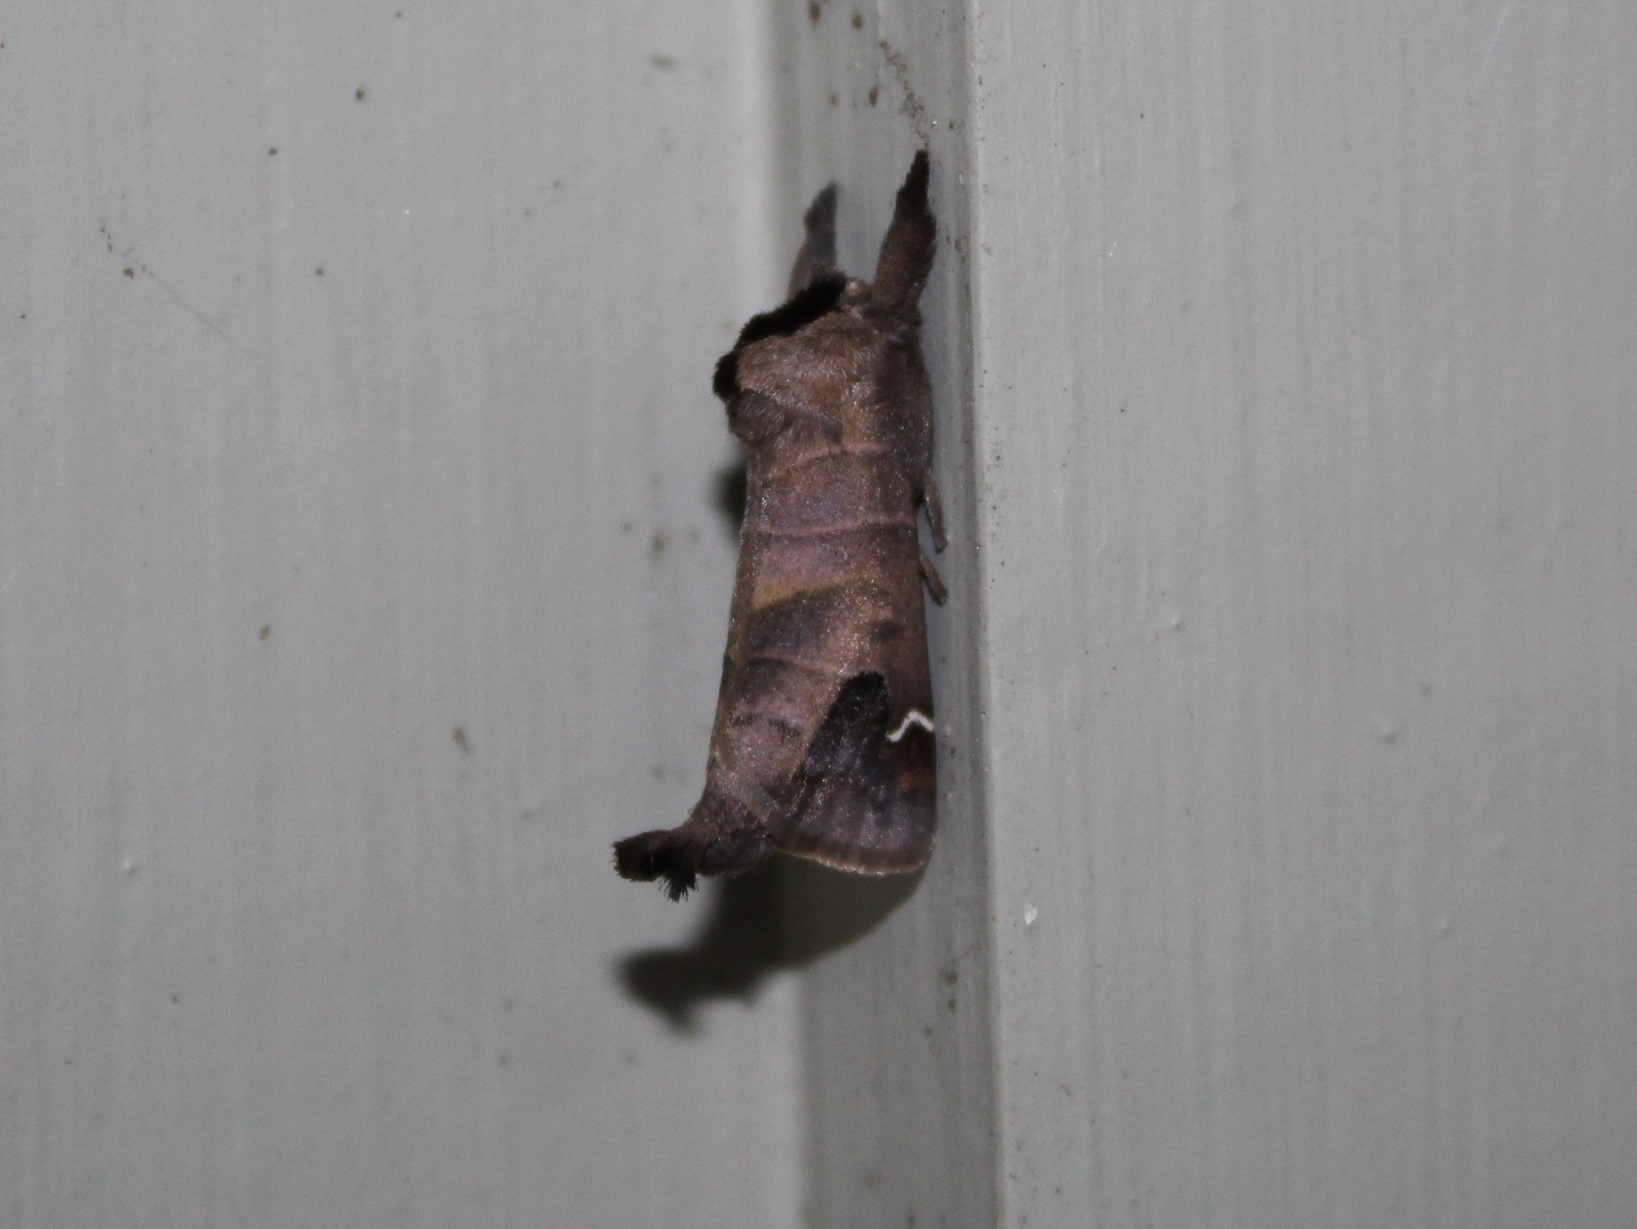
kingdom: Animalia
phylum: Arthropoda
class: Insecta
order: Lepidoptera
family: Notodontidae
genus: Clostera
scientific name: Clostera albosigma
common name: Sigmoid prominent
